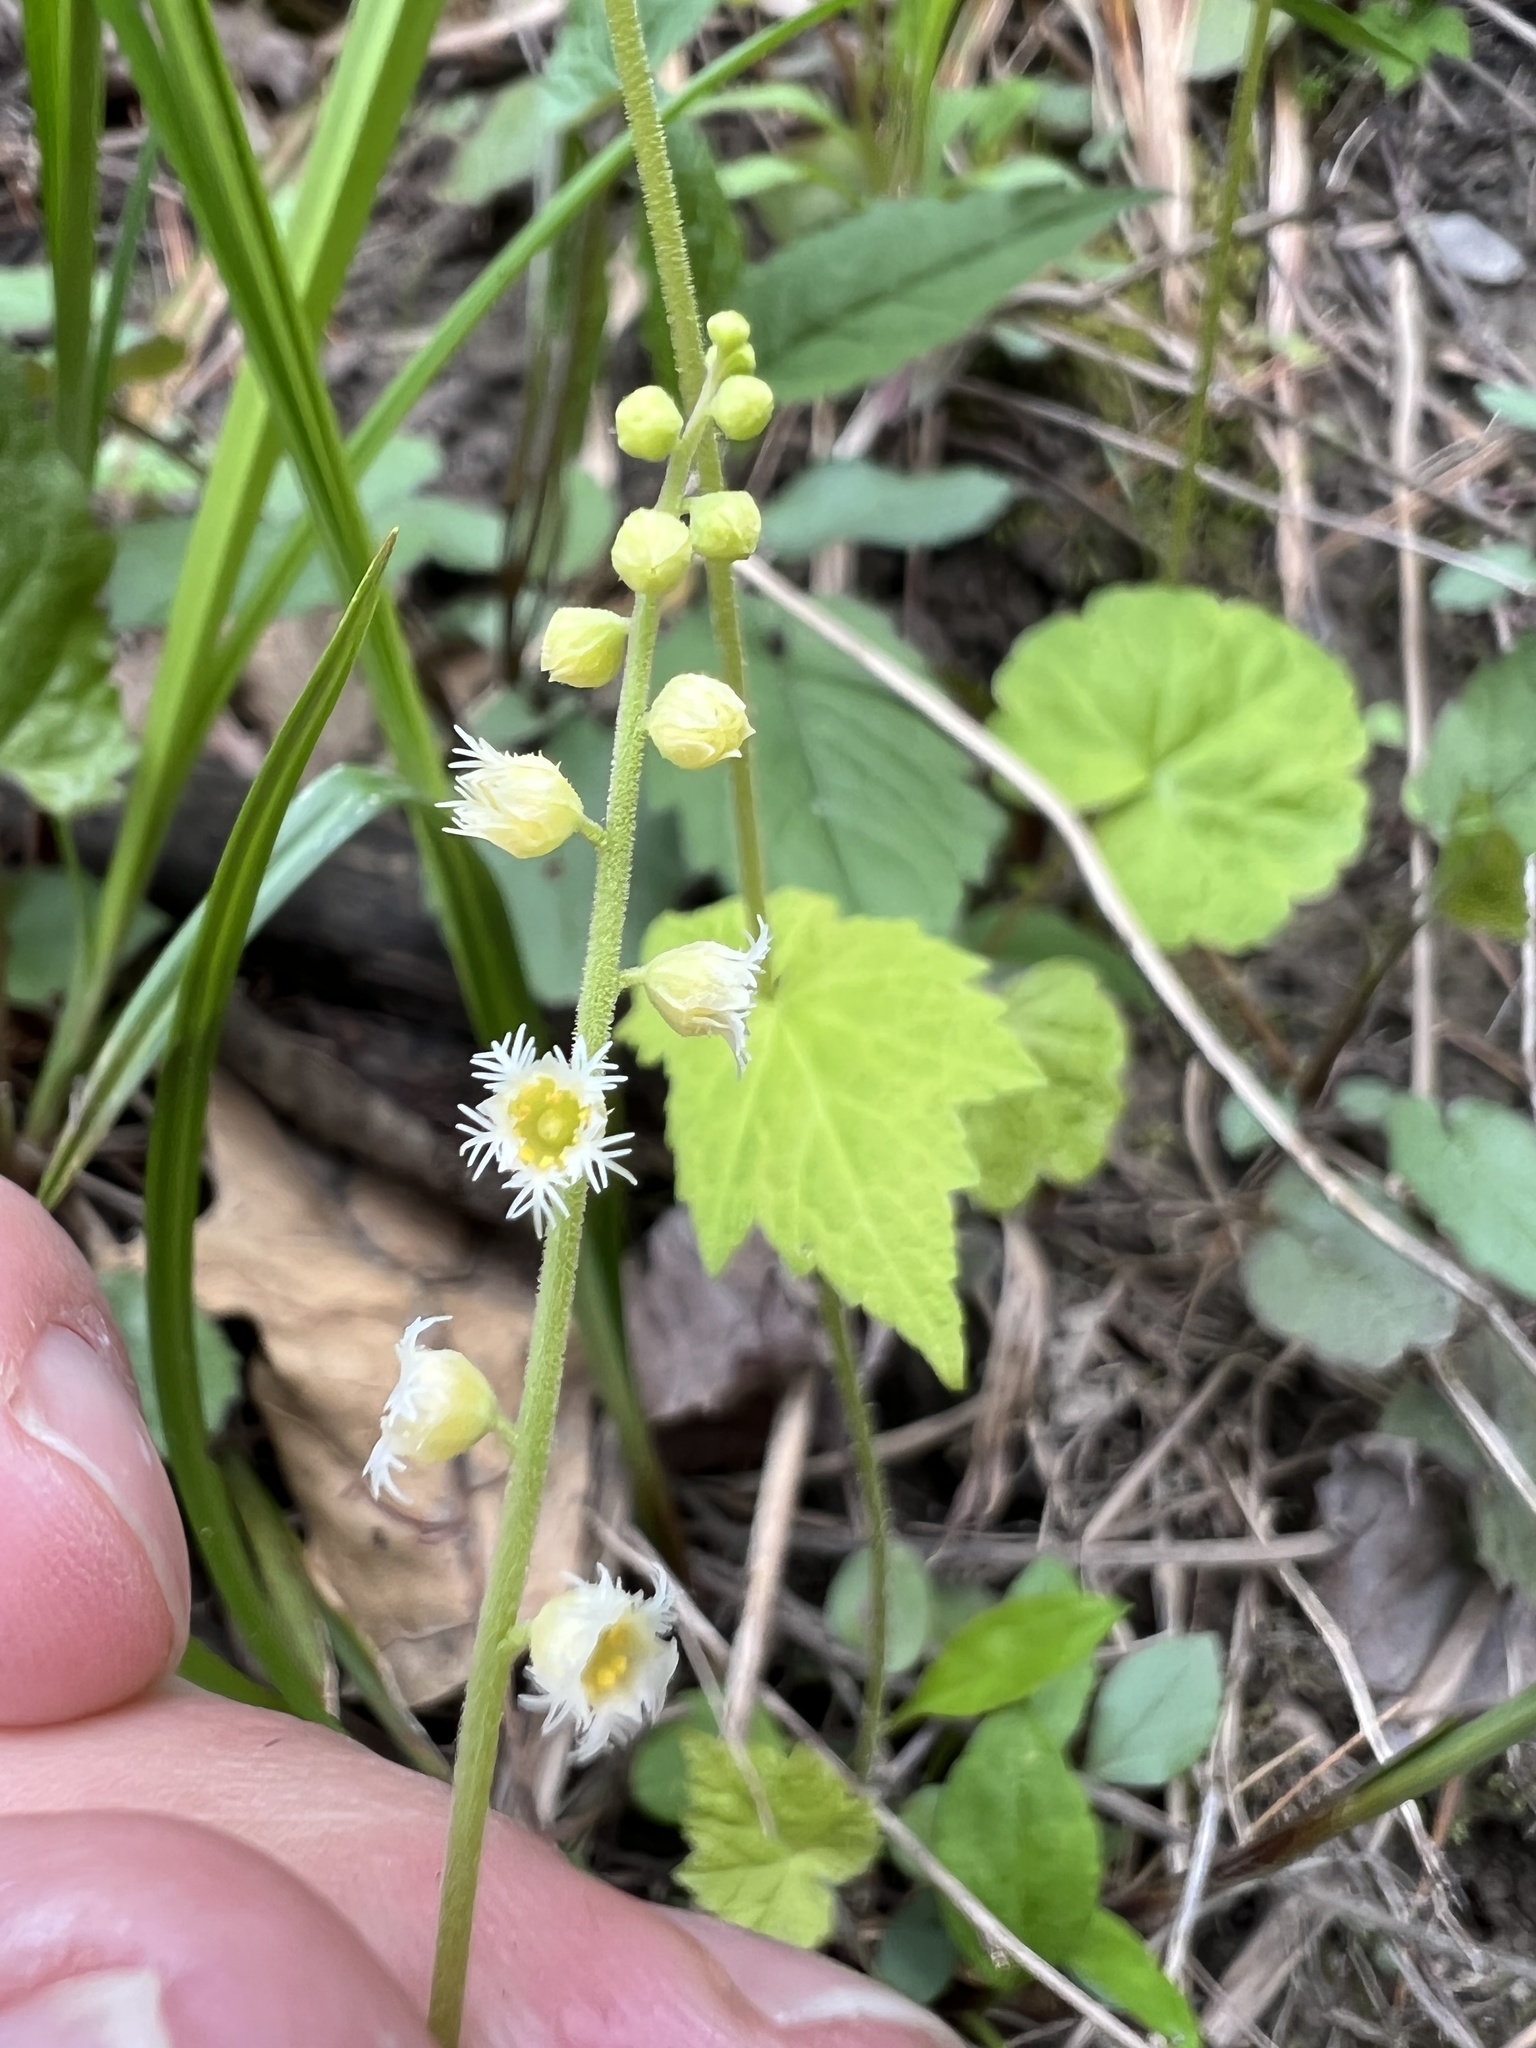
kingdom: Plantae
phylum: Tracheophyta
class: Magnoliopsida
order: Saxifragales
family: Saxifragaceae
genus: Mitella
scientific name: Mitella diphylla
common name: Coolwort
